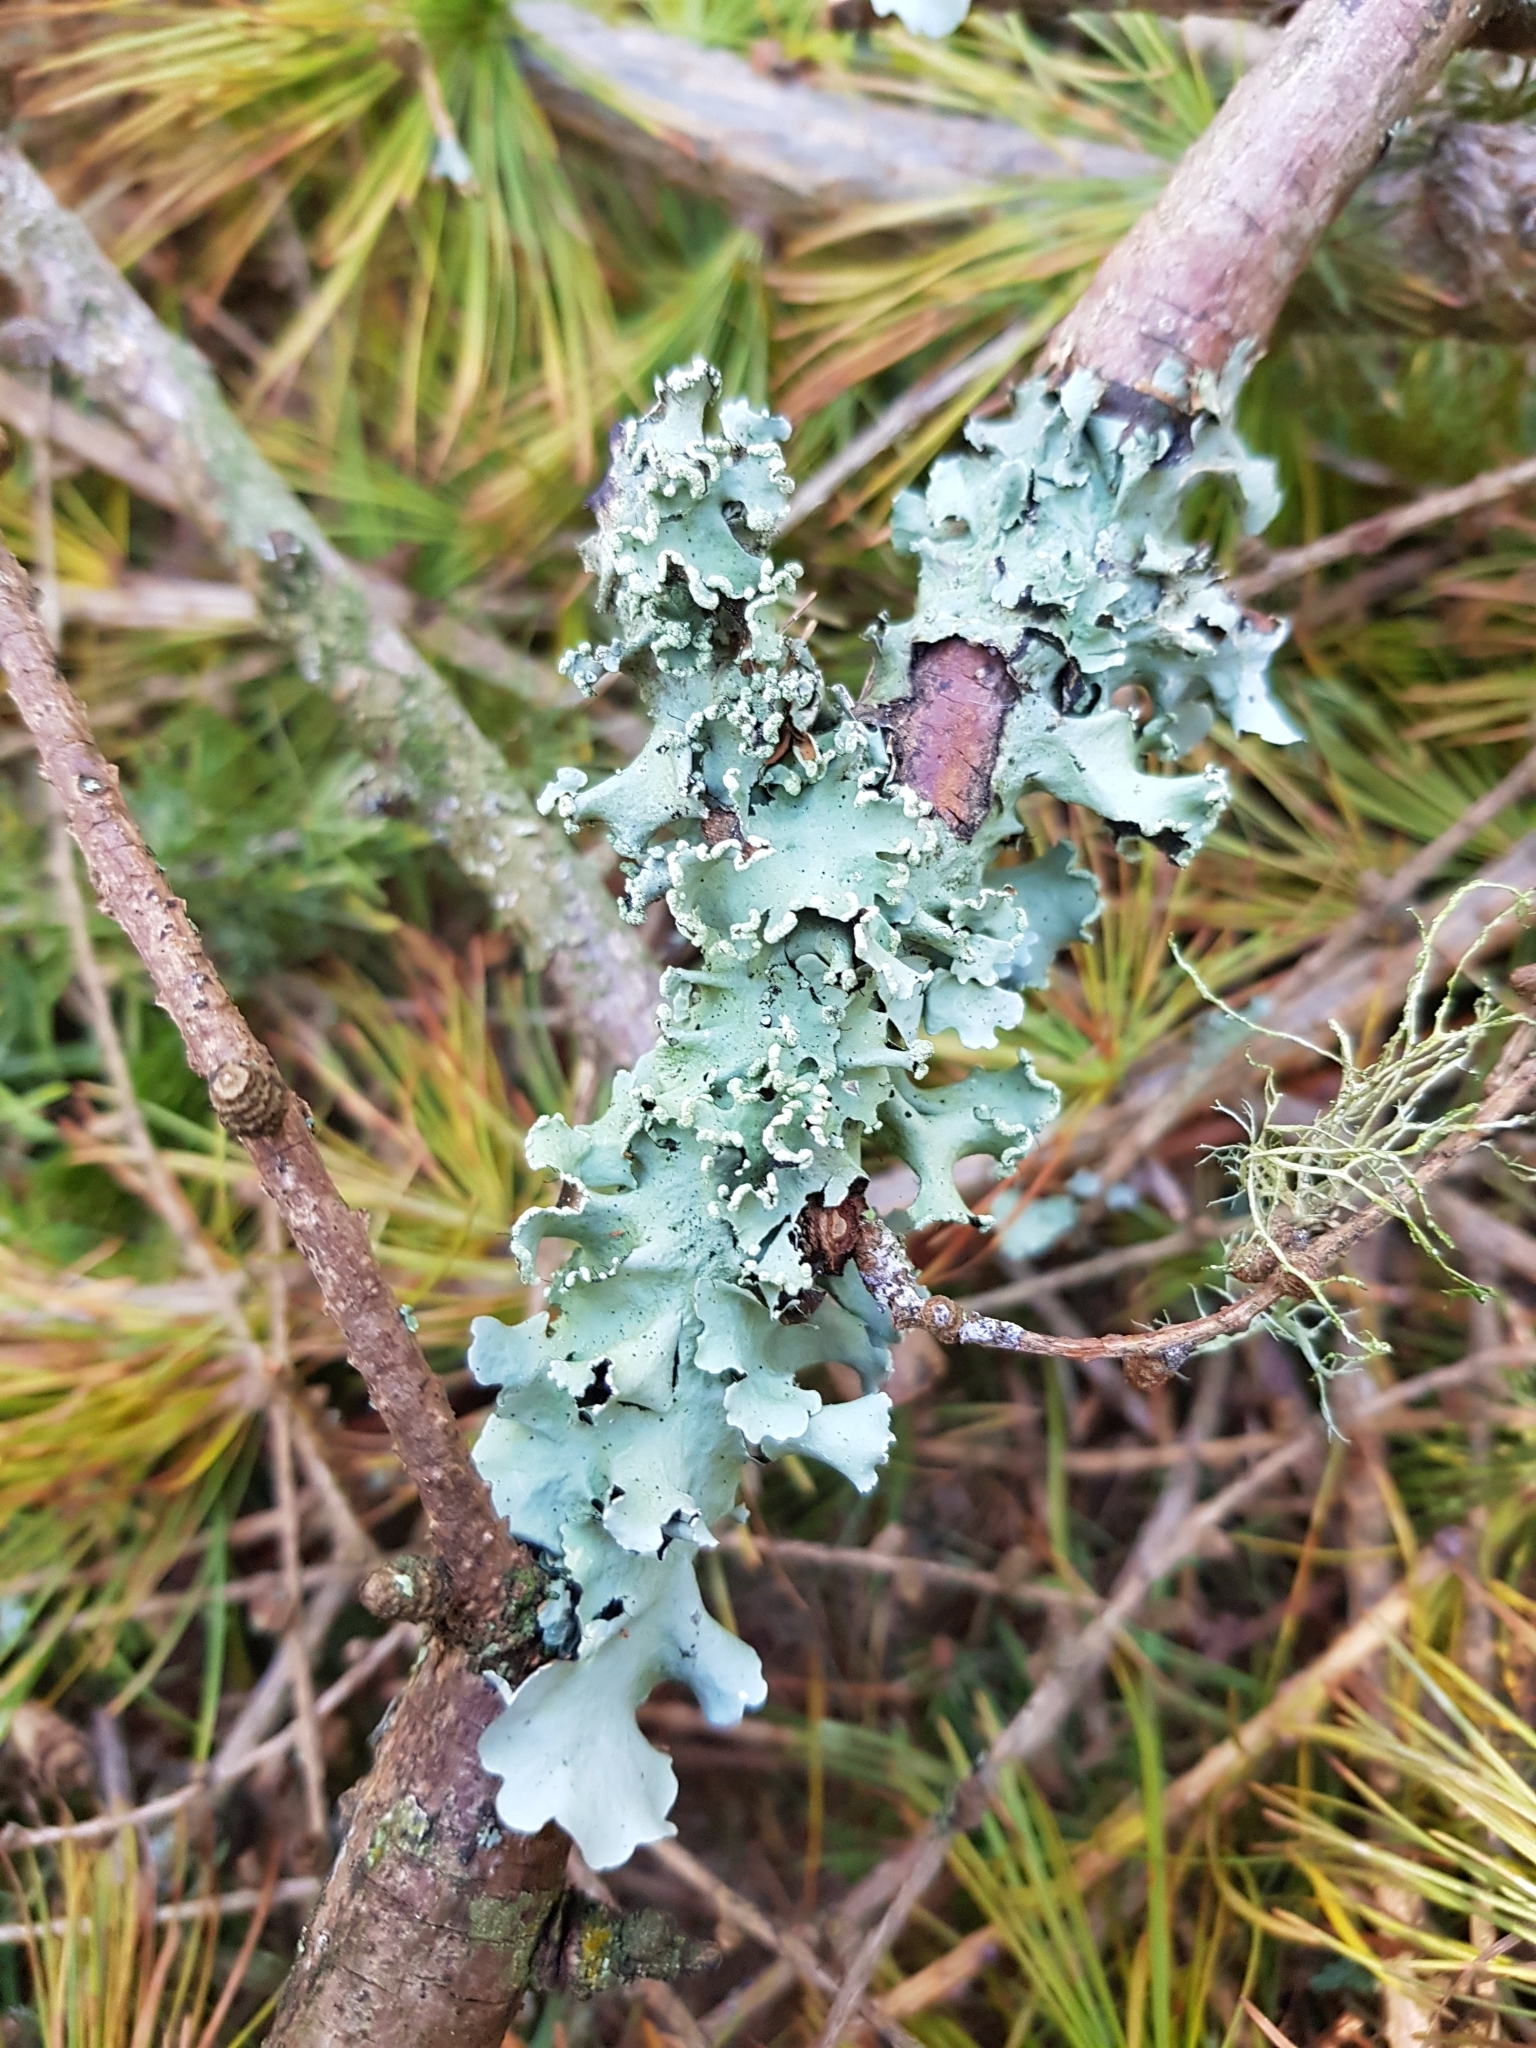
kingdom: Fungi
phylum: Ascomycota
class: Lecanoromycetes
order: Lecanorales
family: Parmeliaceae
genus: Parmotrema
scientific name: Parmotrema
